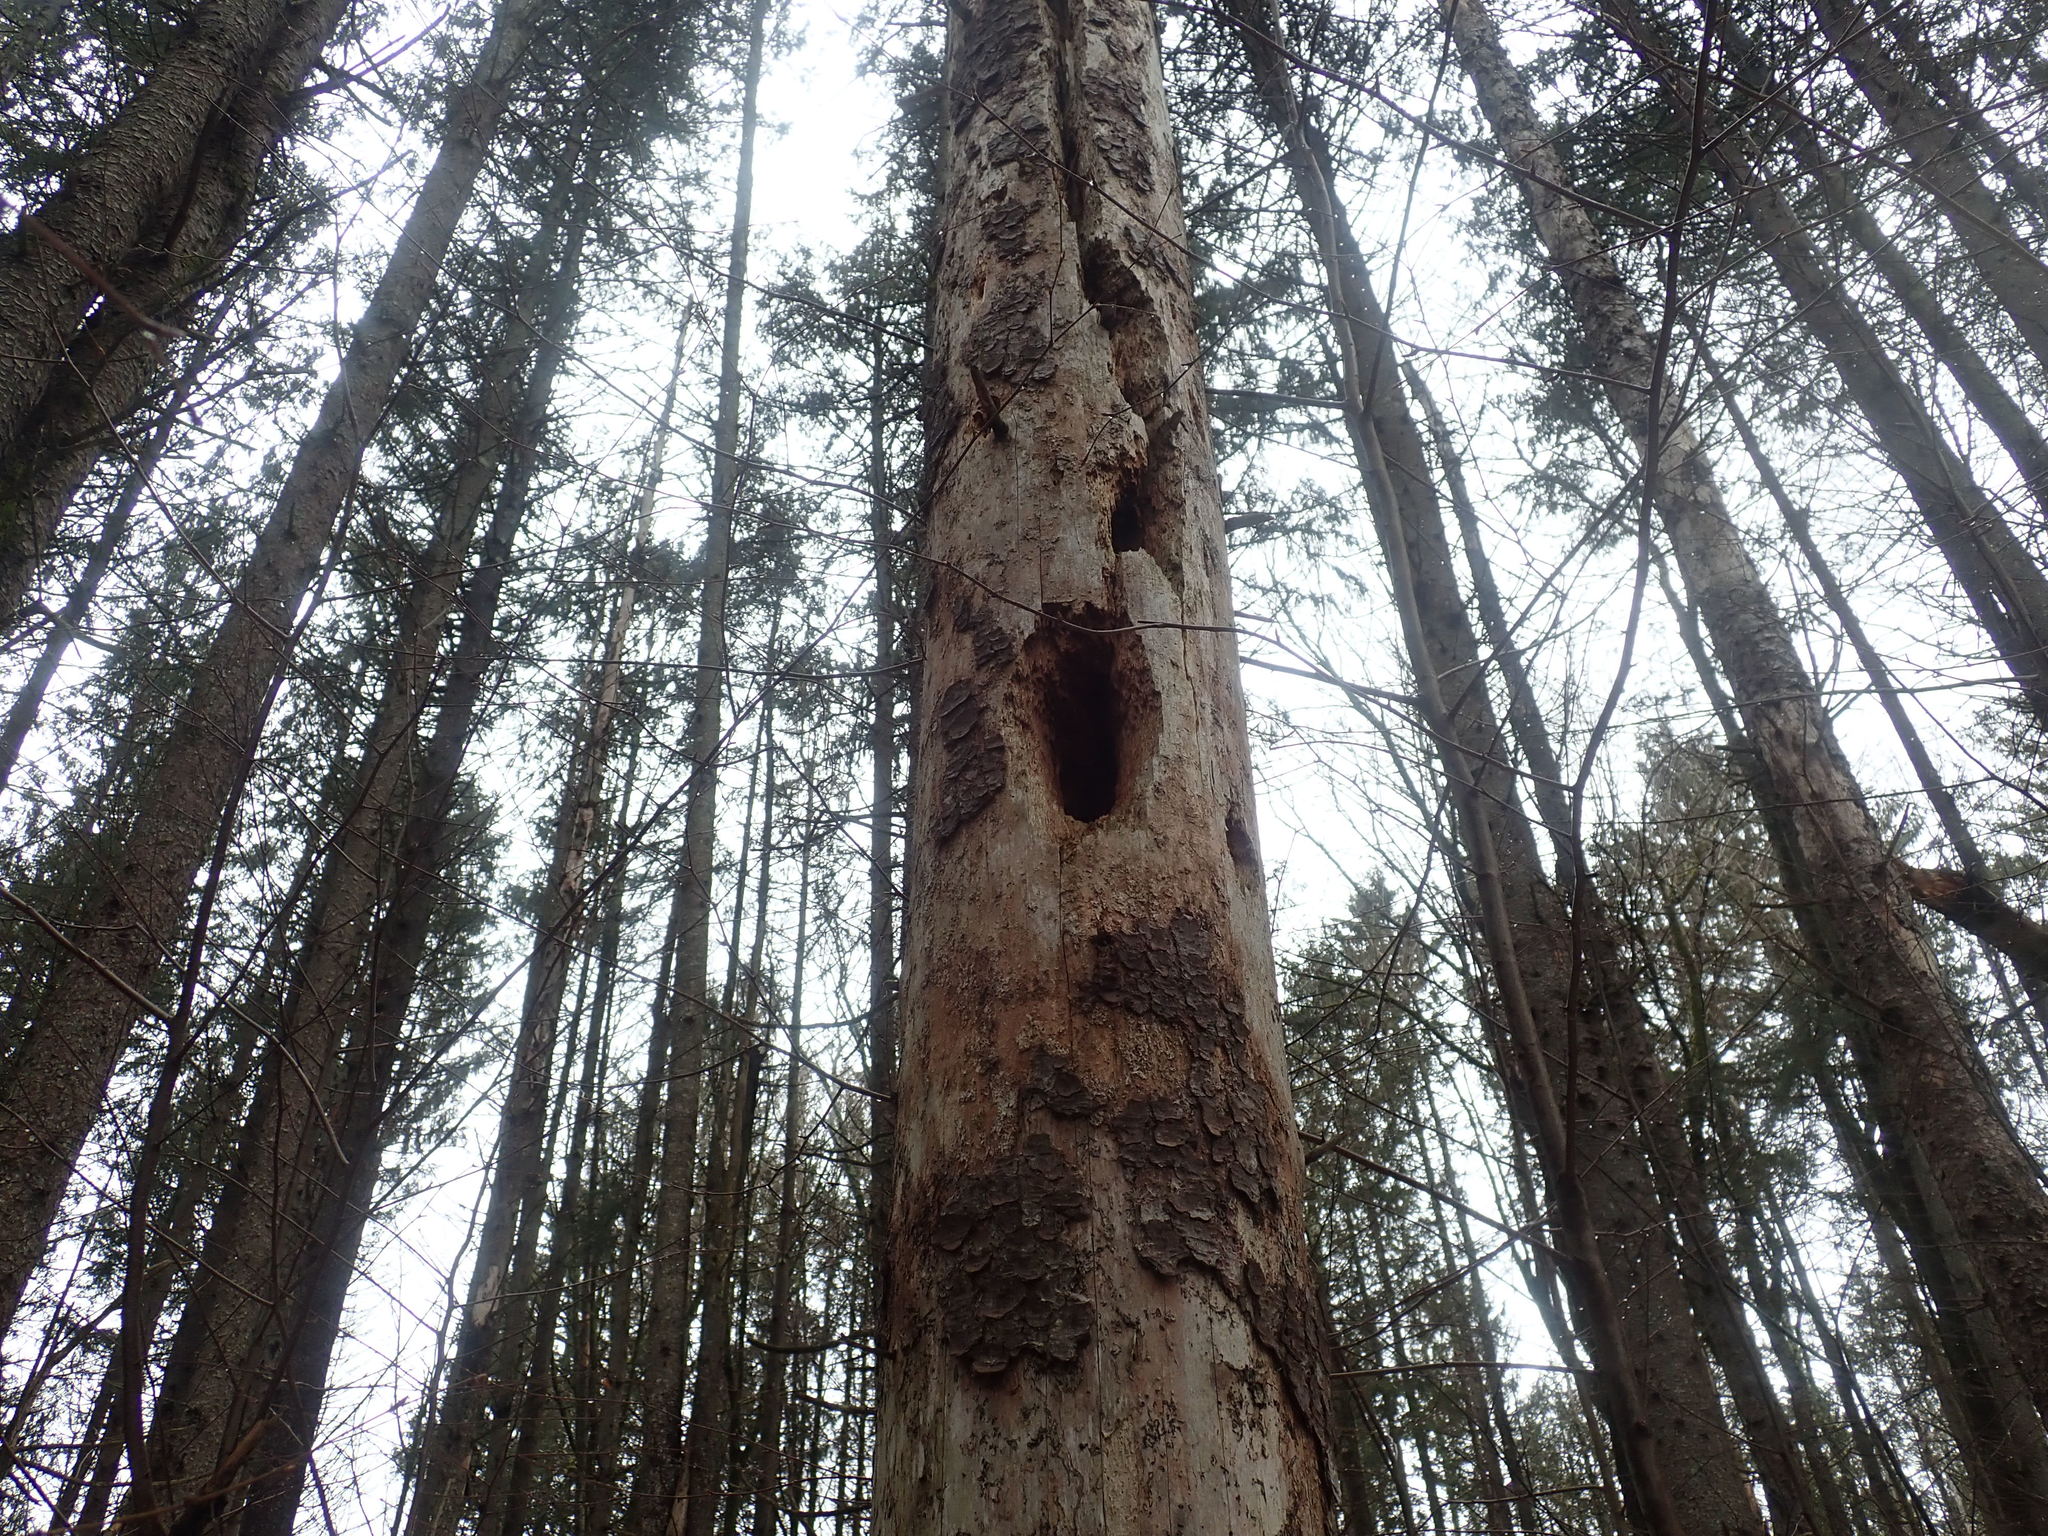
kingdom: Animalia
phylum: Chordata
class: Aves
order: Piciformes
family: Picidae
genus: Dryocopus
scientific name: Dryocopus pileatus
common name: Pileated woodpecker
